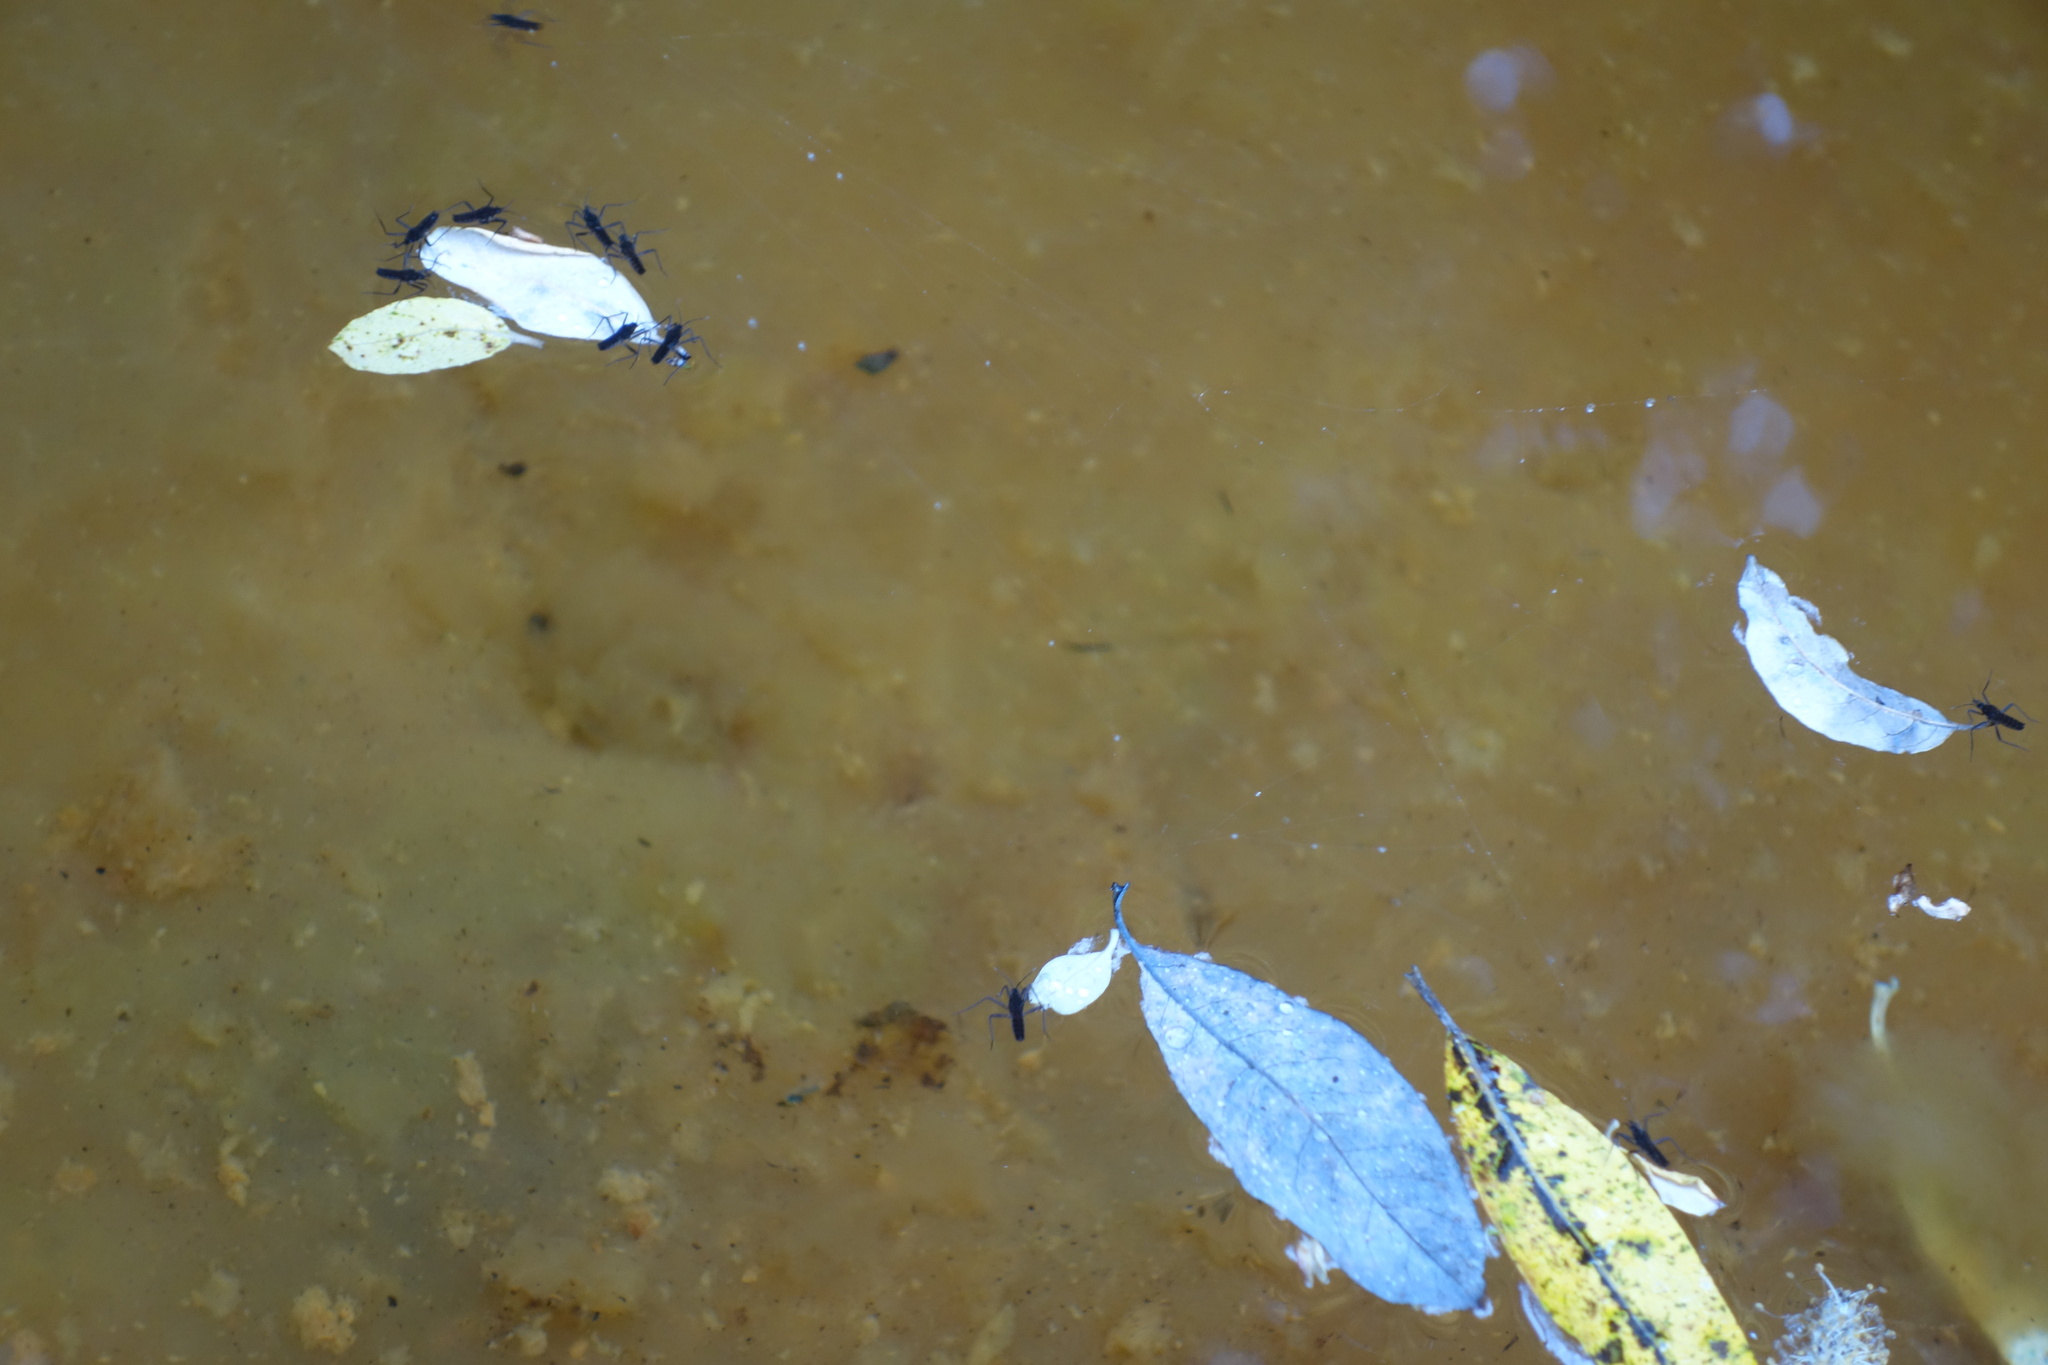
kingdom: Animalia
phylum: Arthropoda
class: Insecta
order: Hemiptera
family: Veliidae
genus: Velia
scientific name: Velia lindbergi
